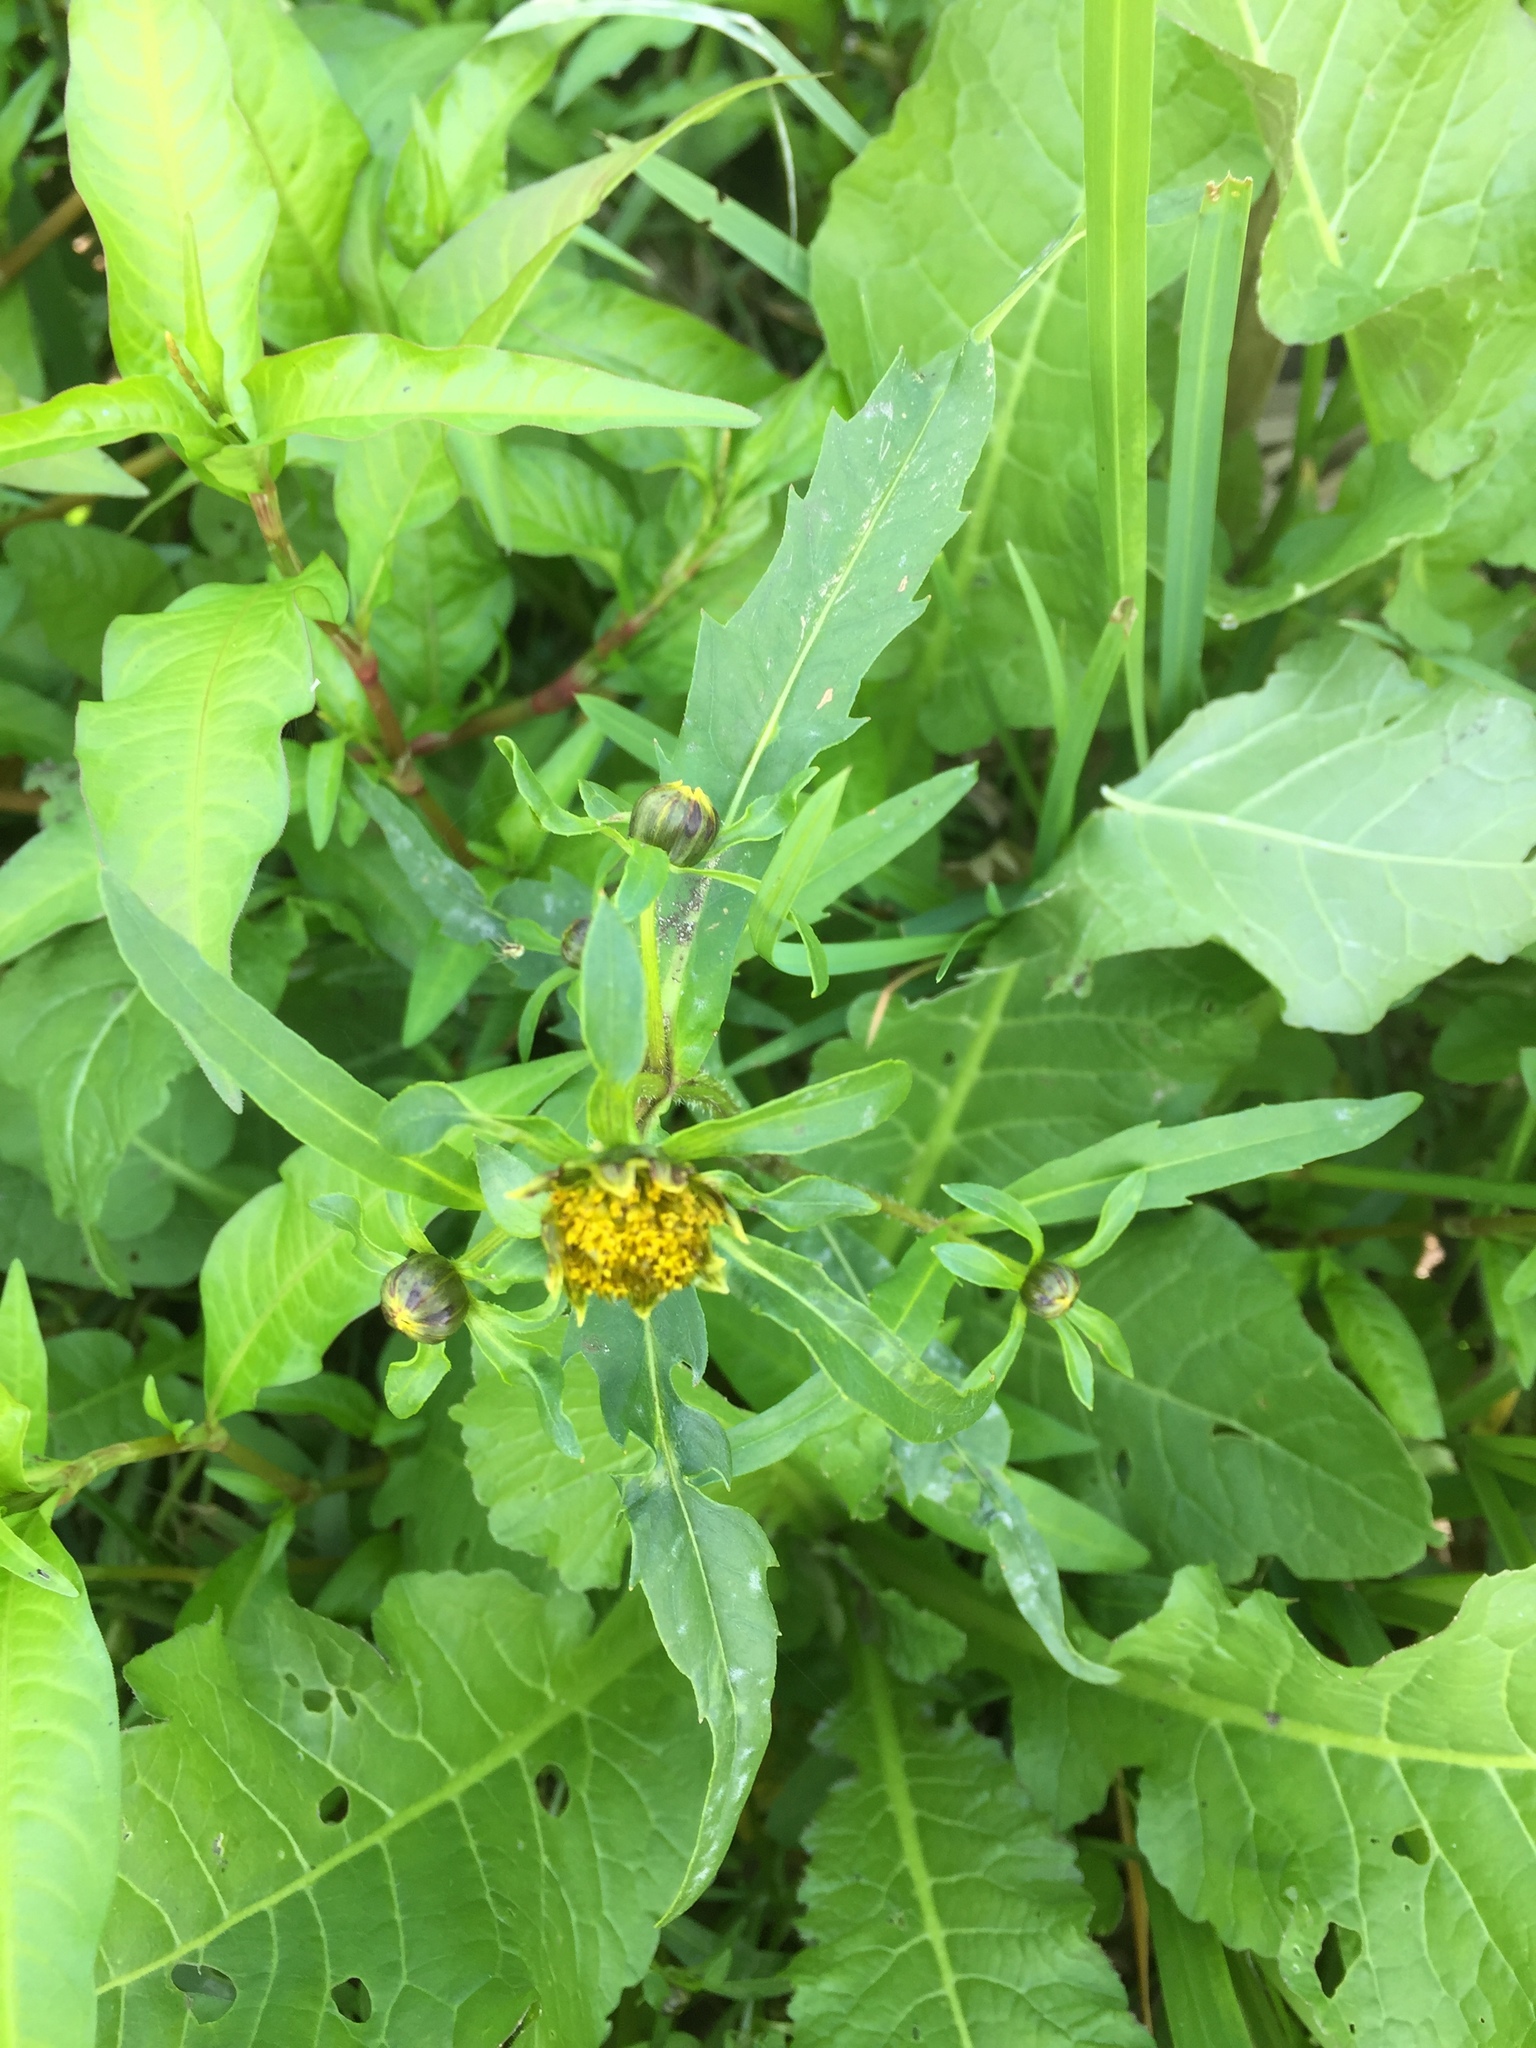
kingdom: Plantae
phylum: Tracheophyta
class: Magnoliopsida
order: Asterales
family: Asteraceae
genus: Bidens
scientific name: Bidens cernua
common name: Nodding bur-marigold
